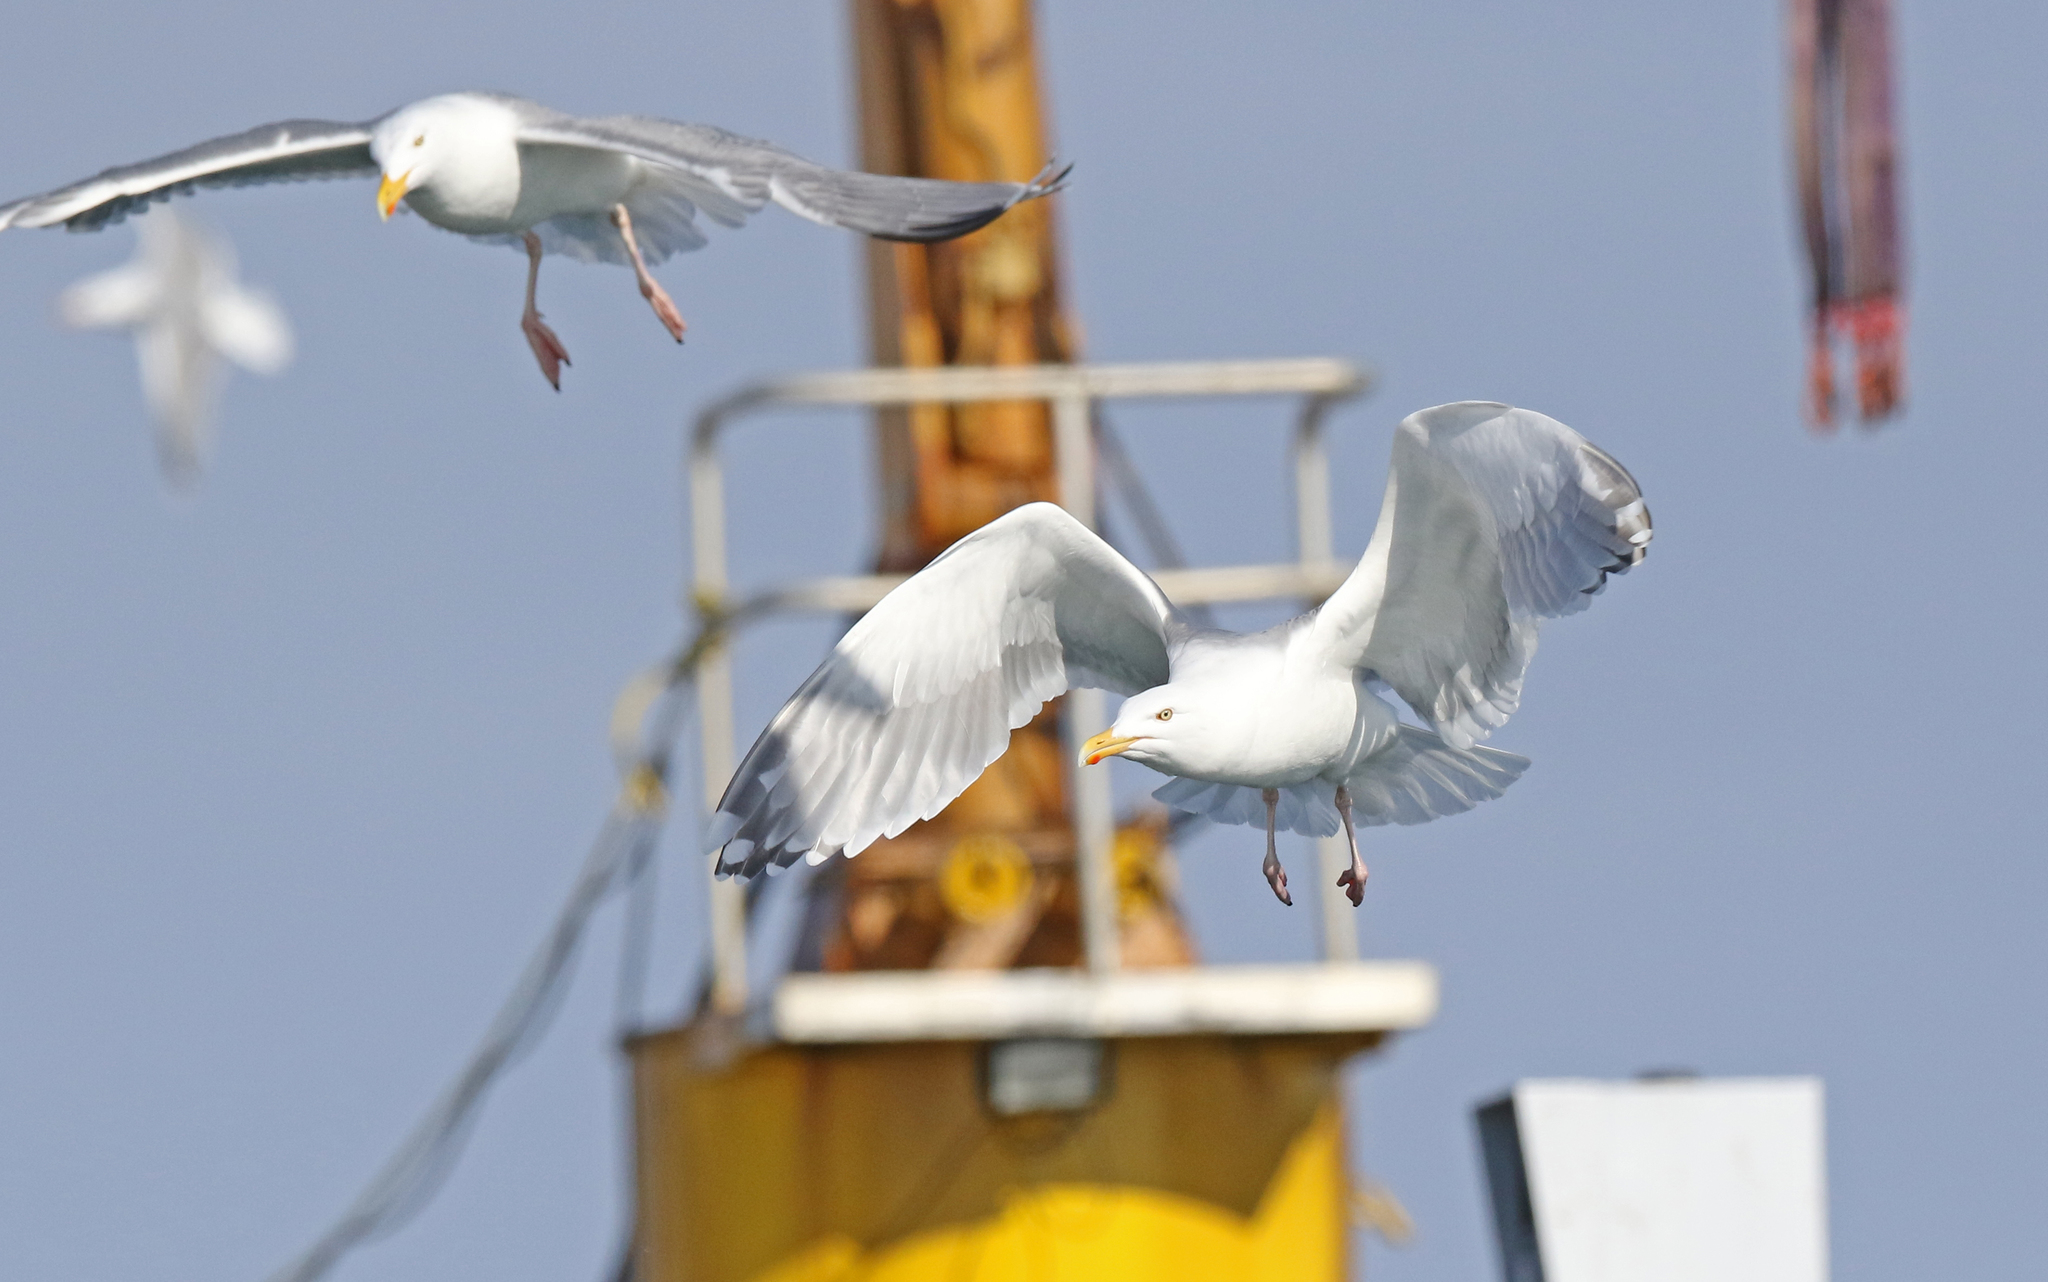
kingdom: Animalia
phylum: Chordata
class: Aves
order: Charadriiformes
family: Laridae
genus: Larus
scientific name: Larus argentatus
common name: Herring gull
